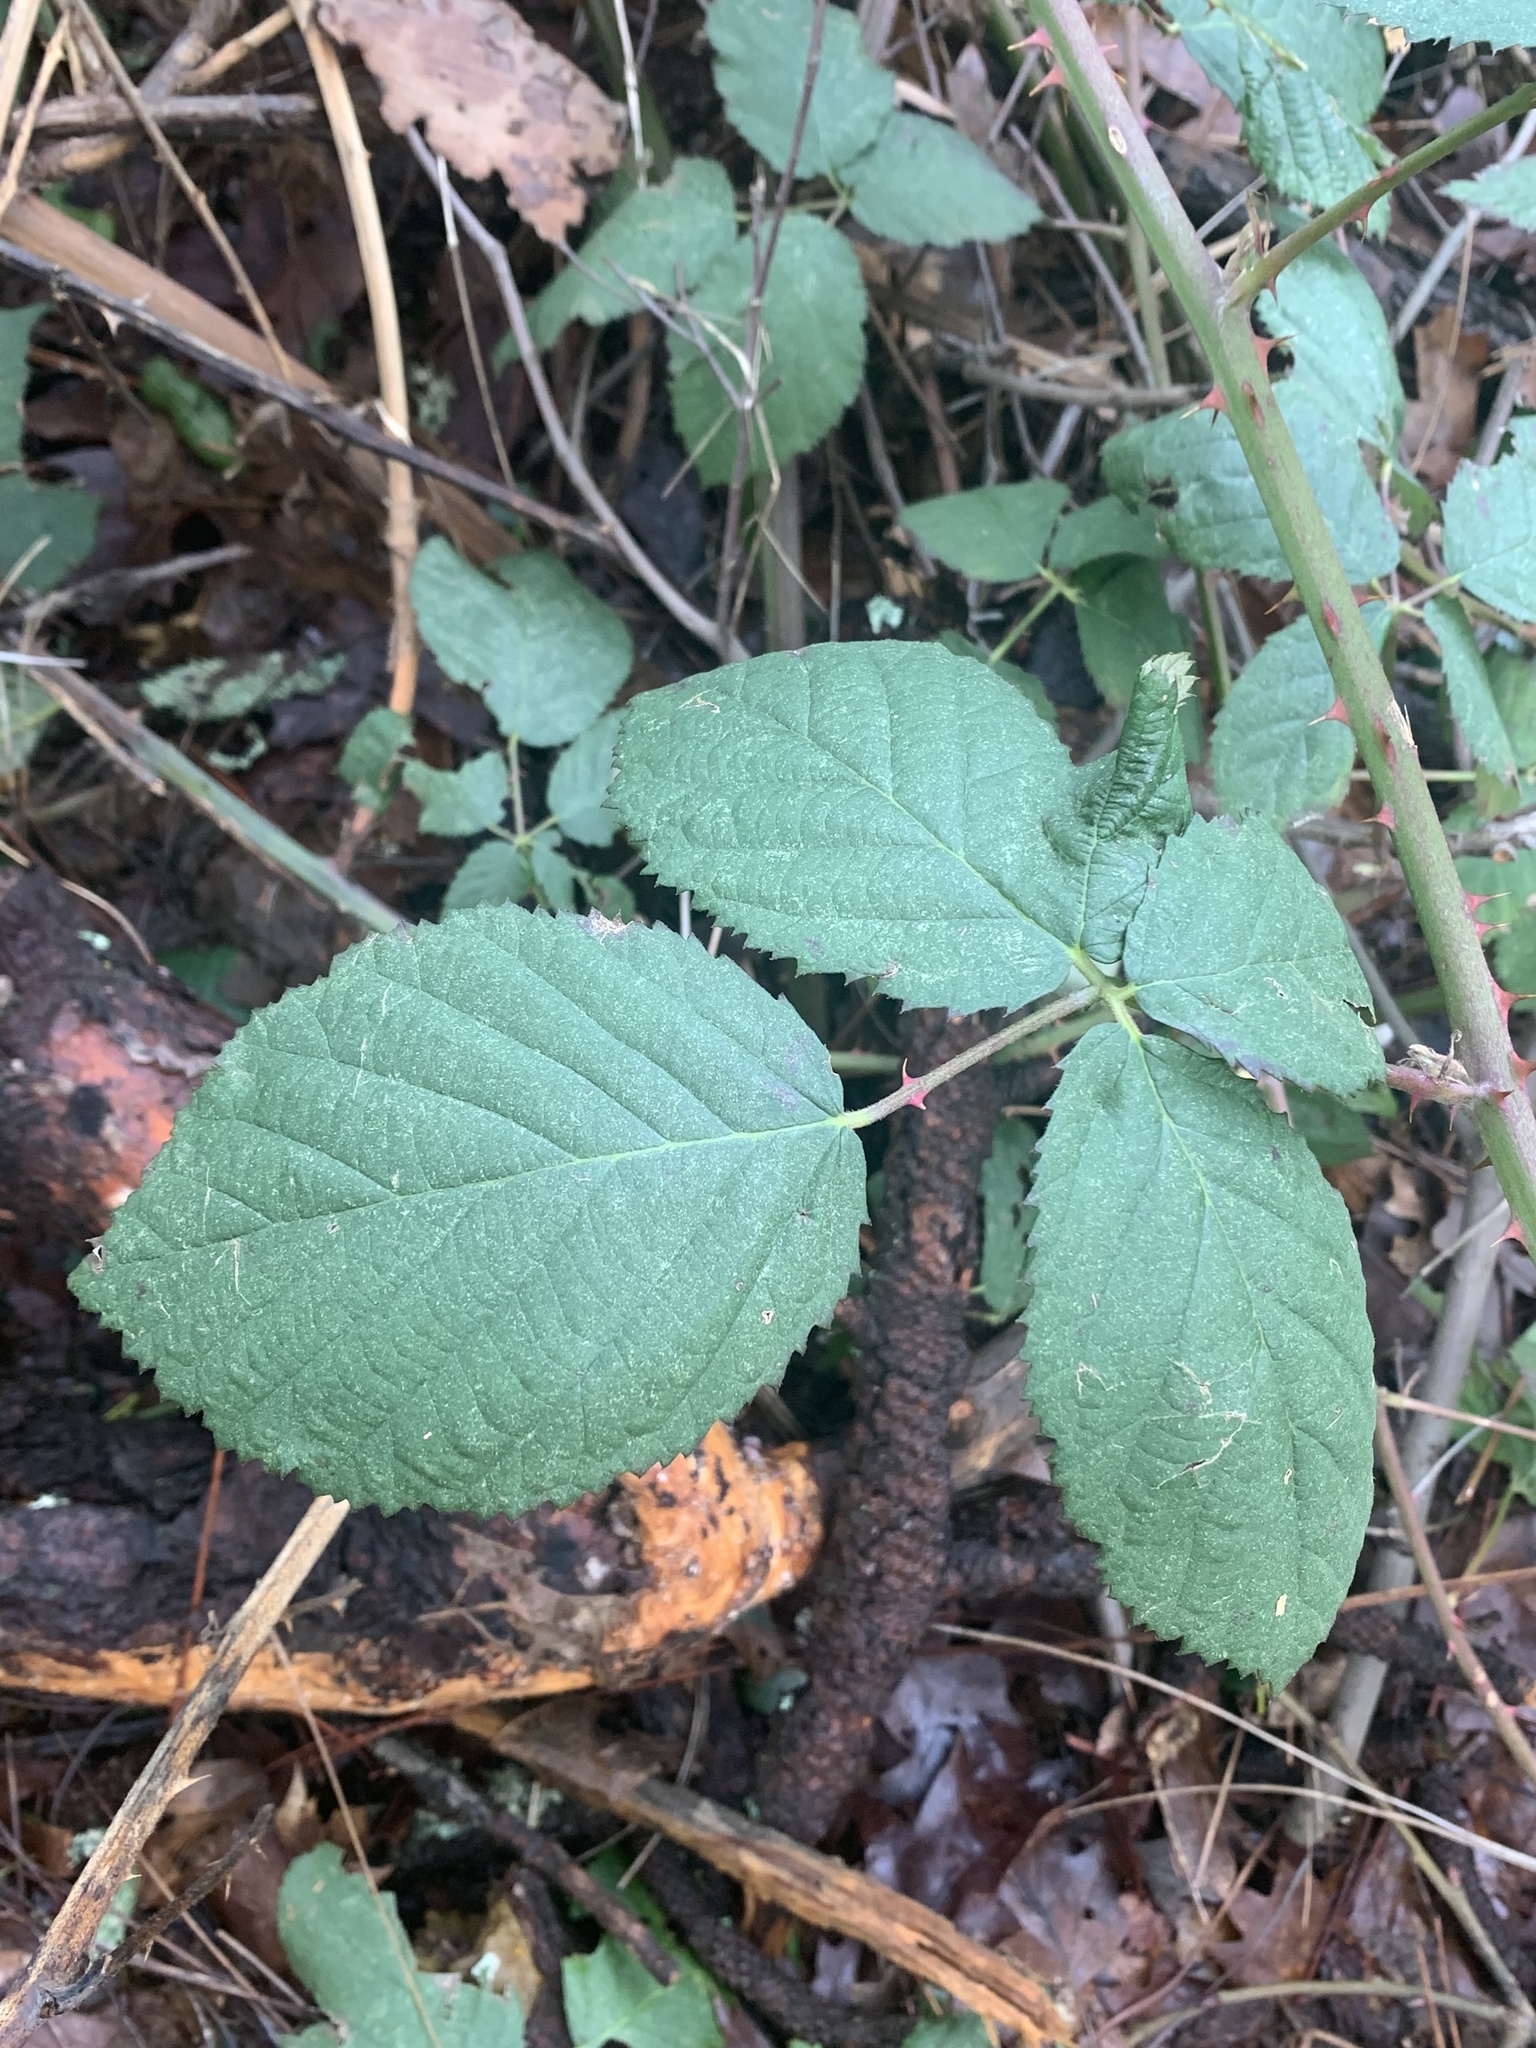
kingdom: Plantae
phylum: Tracheophyta
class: Magnoliopsida
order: Rosales
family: Rosaceae
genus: Rubus
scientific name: Rubus armeniacus
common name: Himalayan blackberry
